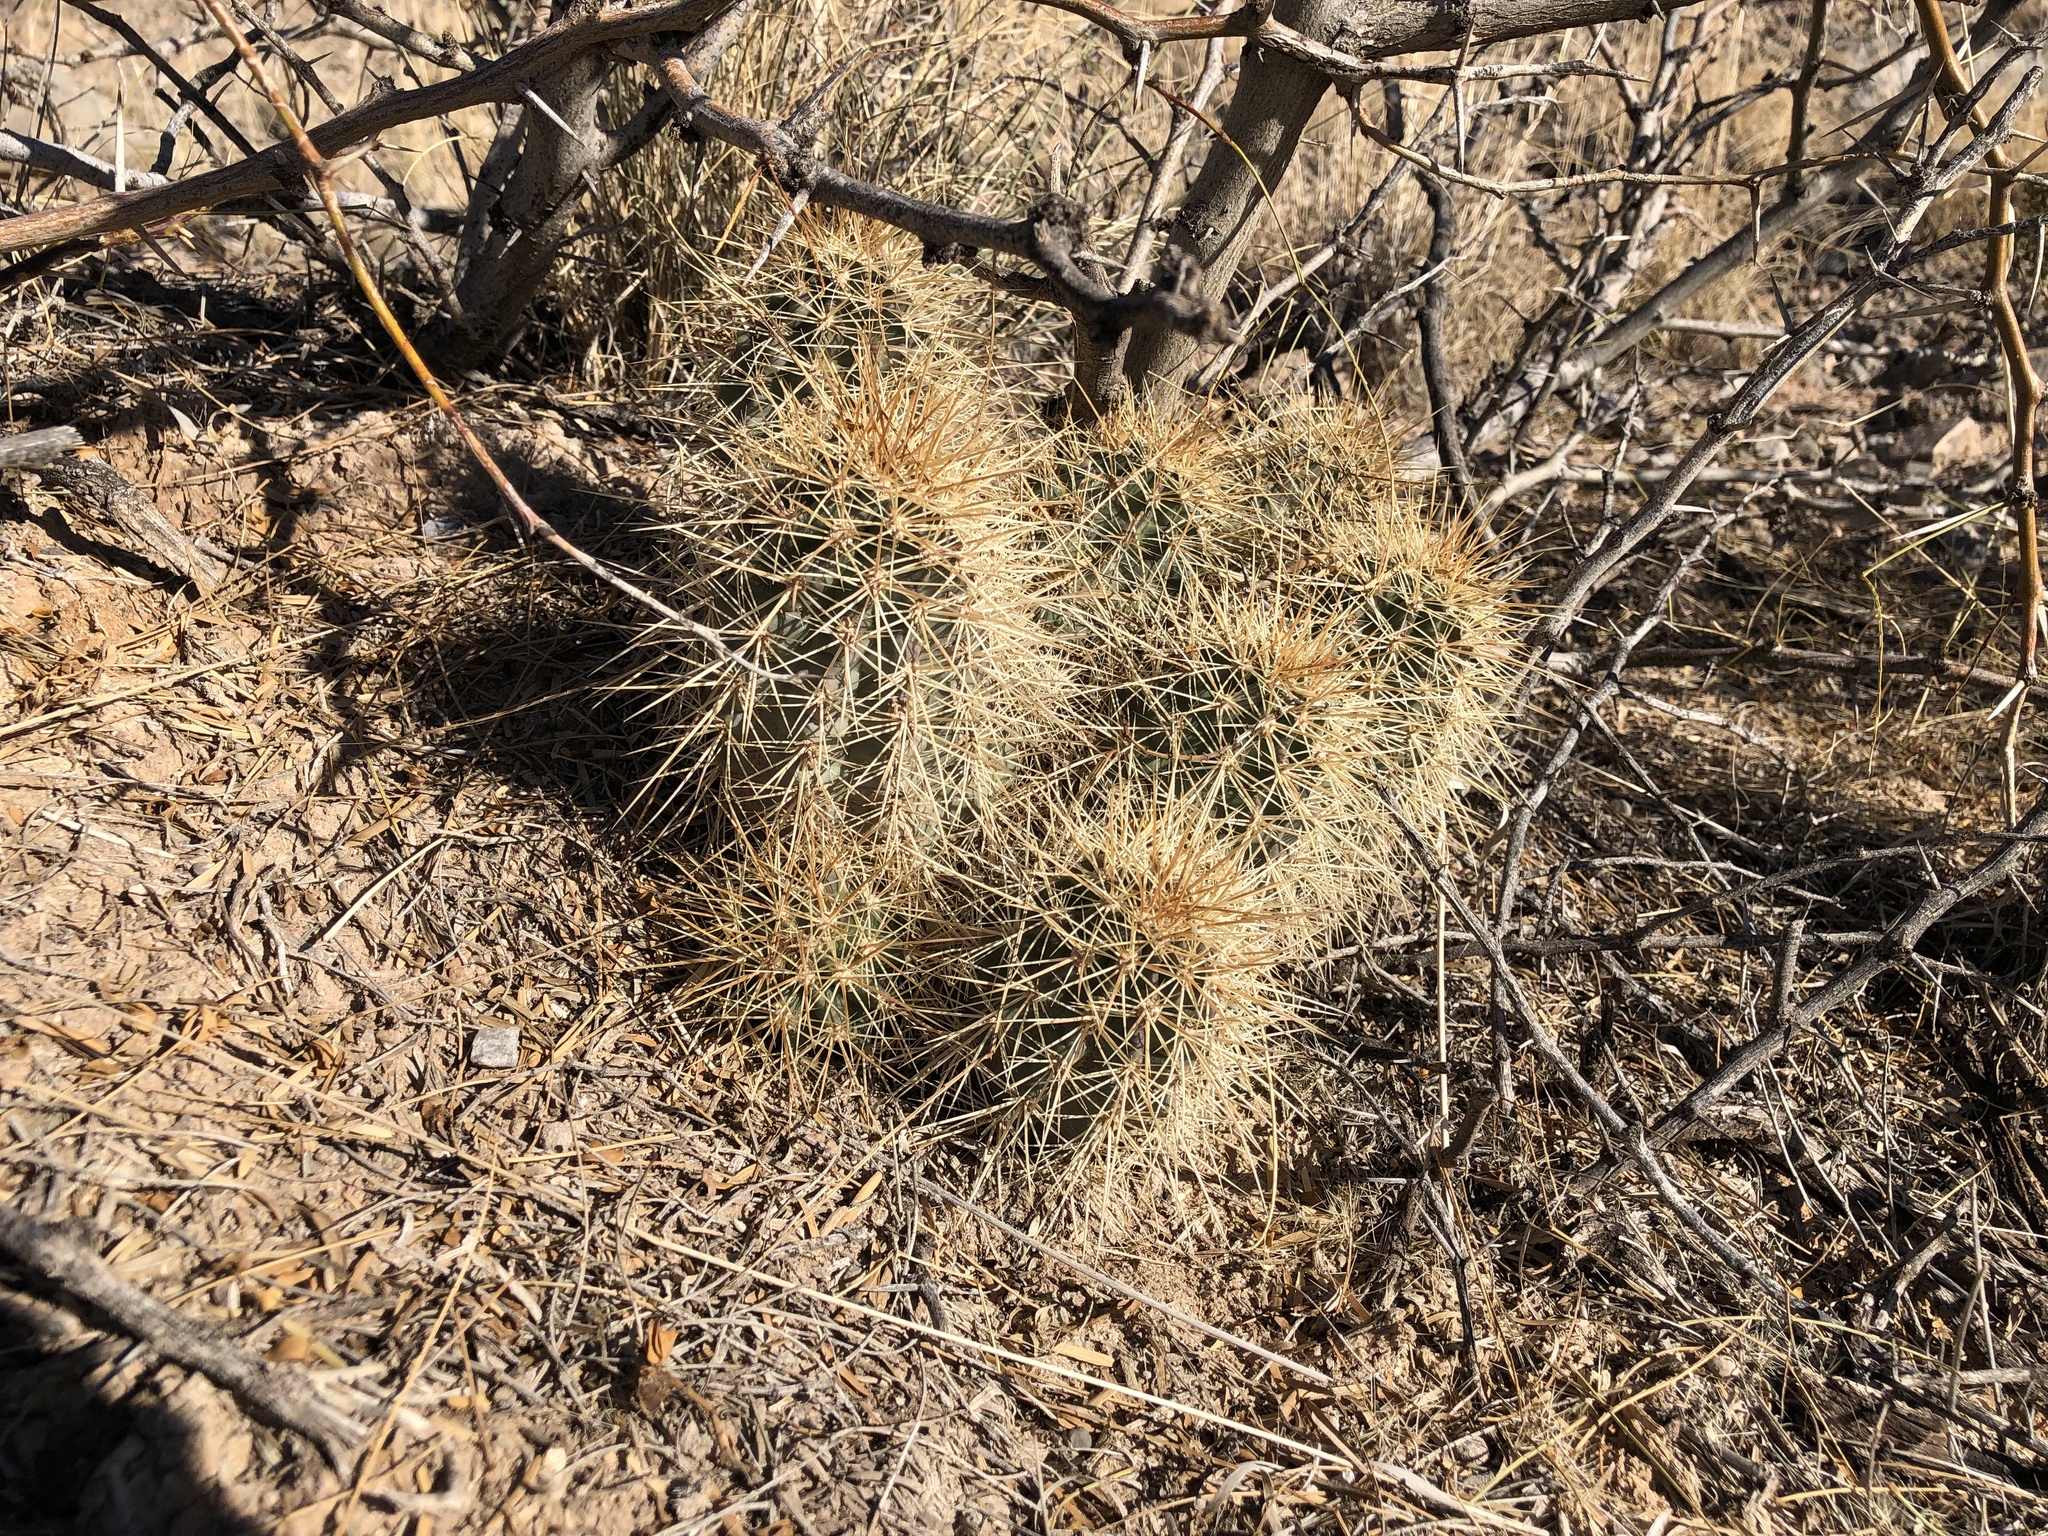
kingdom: Plantae
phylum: Tracheophyta
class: Magnoliopsida
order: Caryophyllales
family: Cactaceae
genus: Echinocereus
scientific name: Echinocereus coccineus
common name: Scarlet hedgehog cactus
